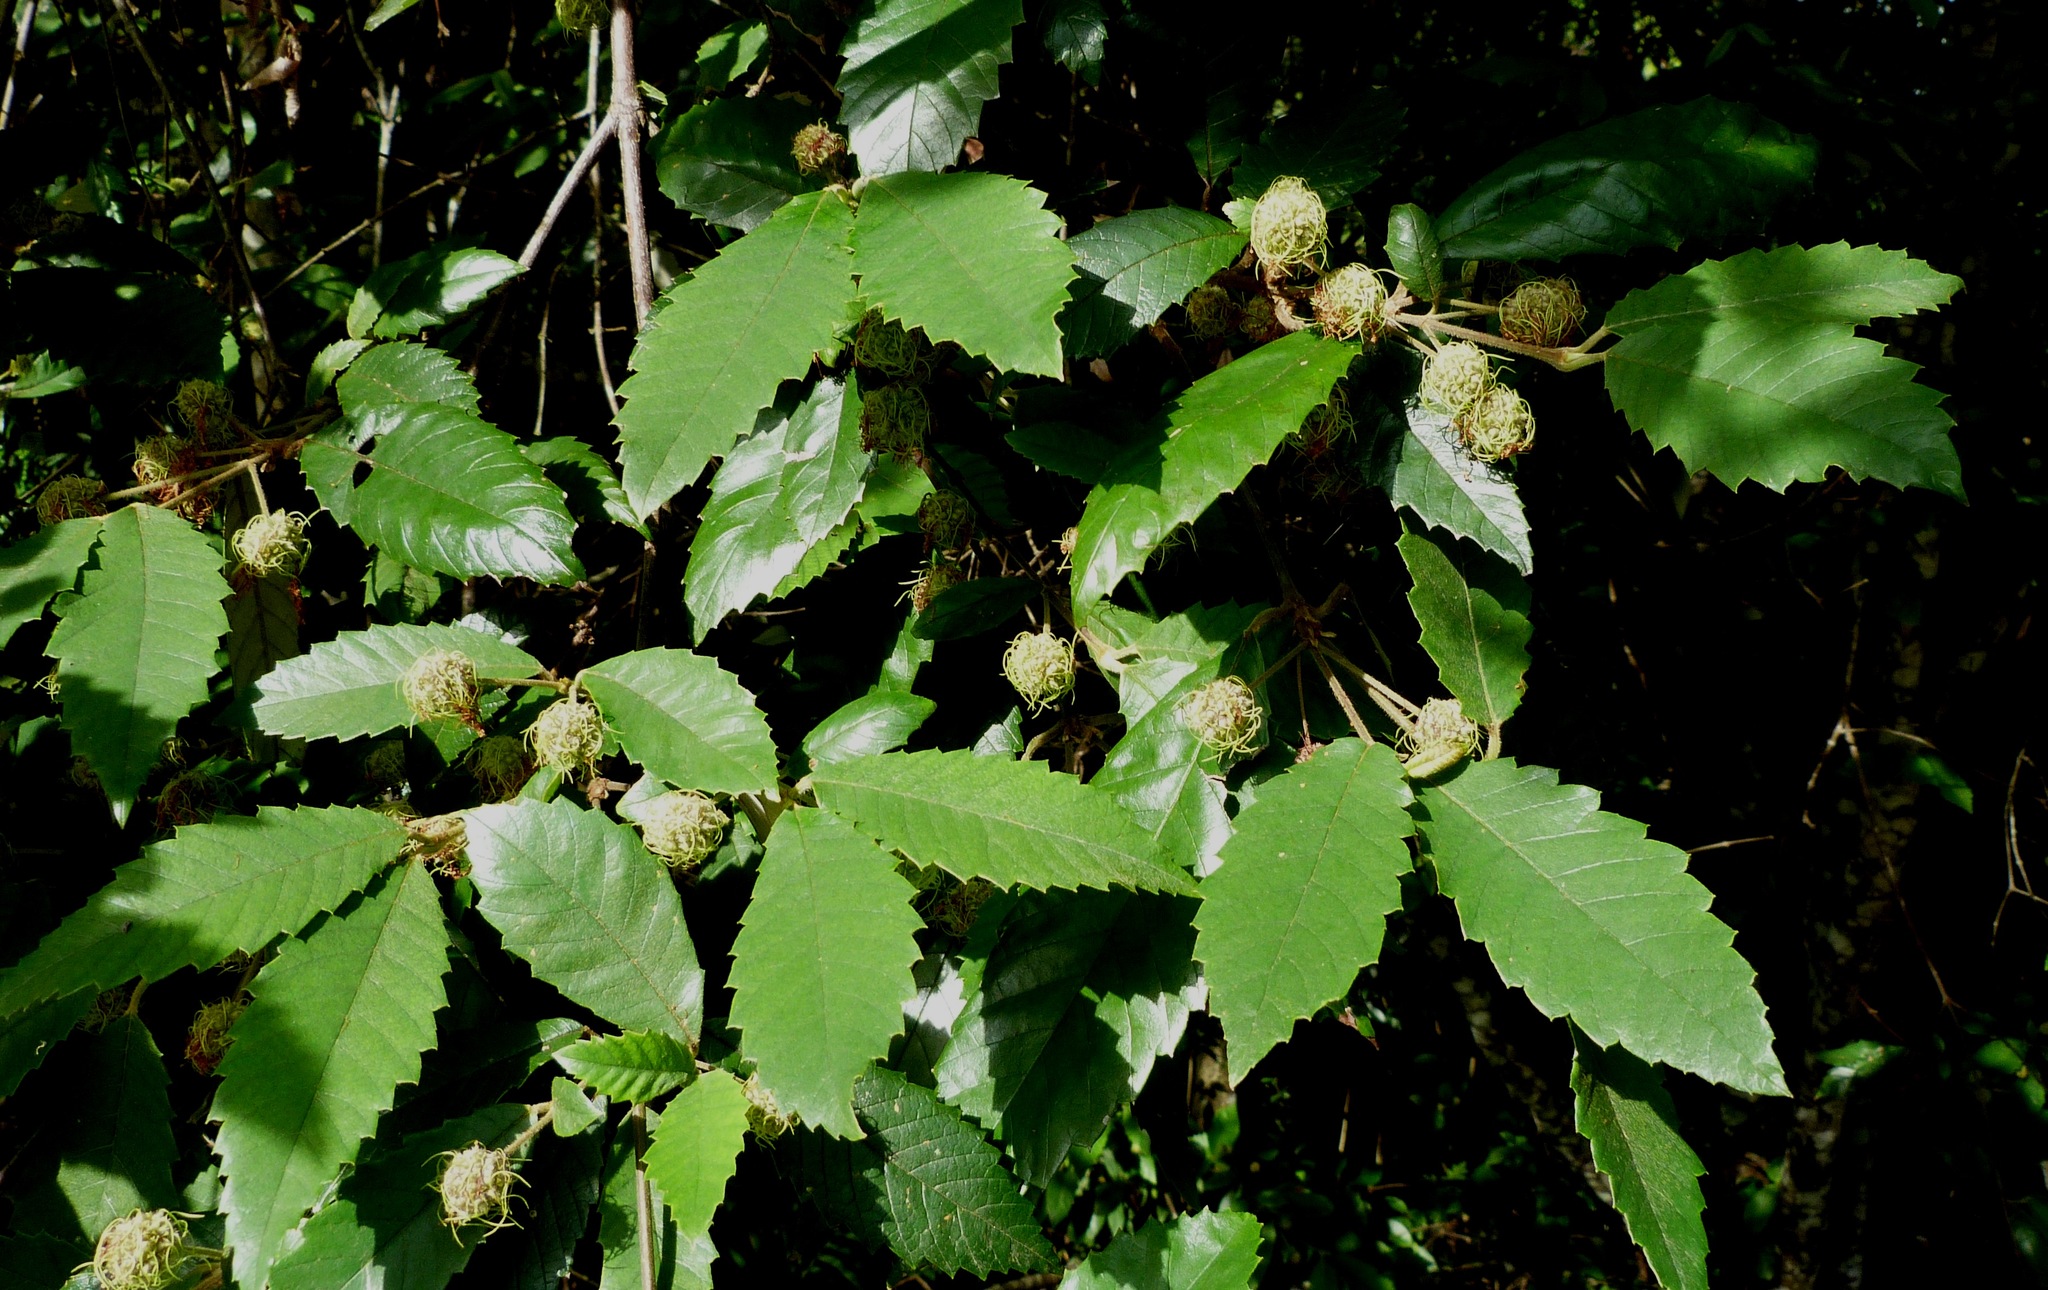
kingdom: Plantae
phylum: Tracheophyta
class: Magnoliopsida
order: Oxalidales
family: Cunoniaceae
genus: Callicoma
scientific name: Callicoma serratifolia
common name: Black wattle
